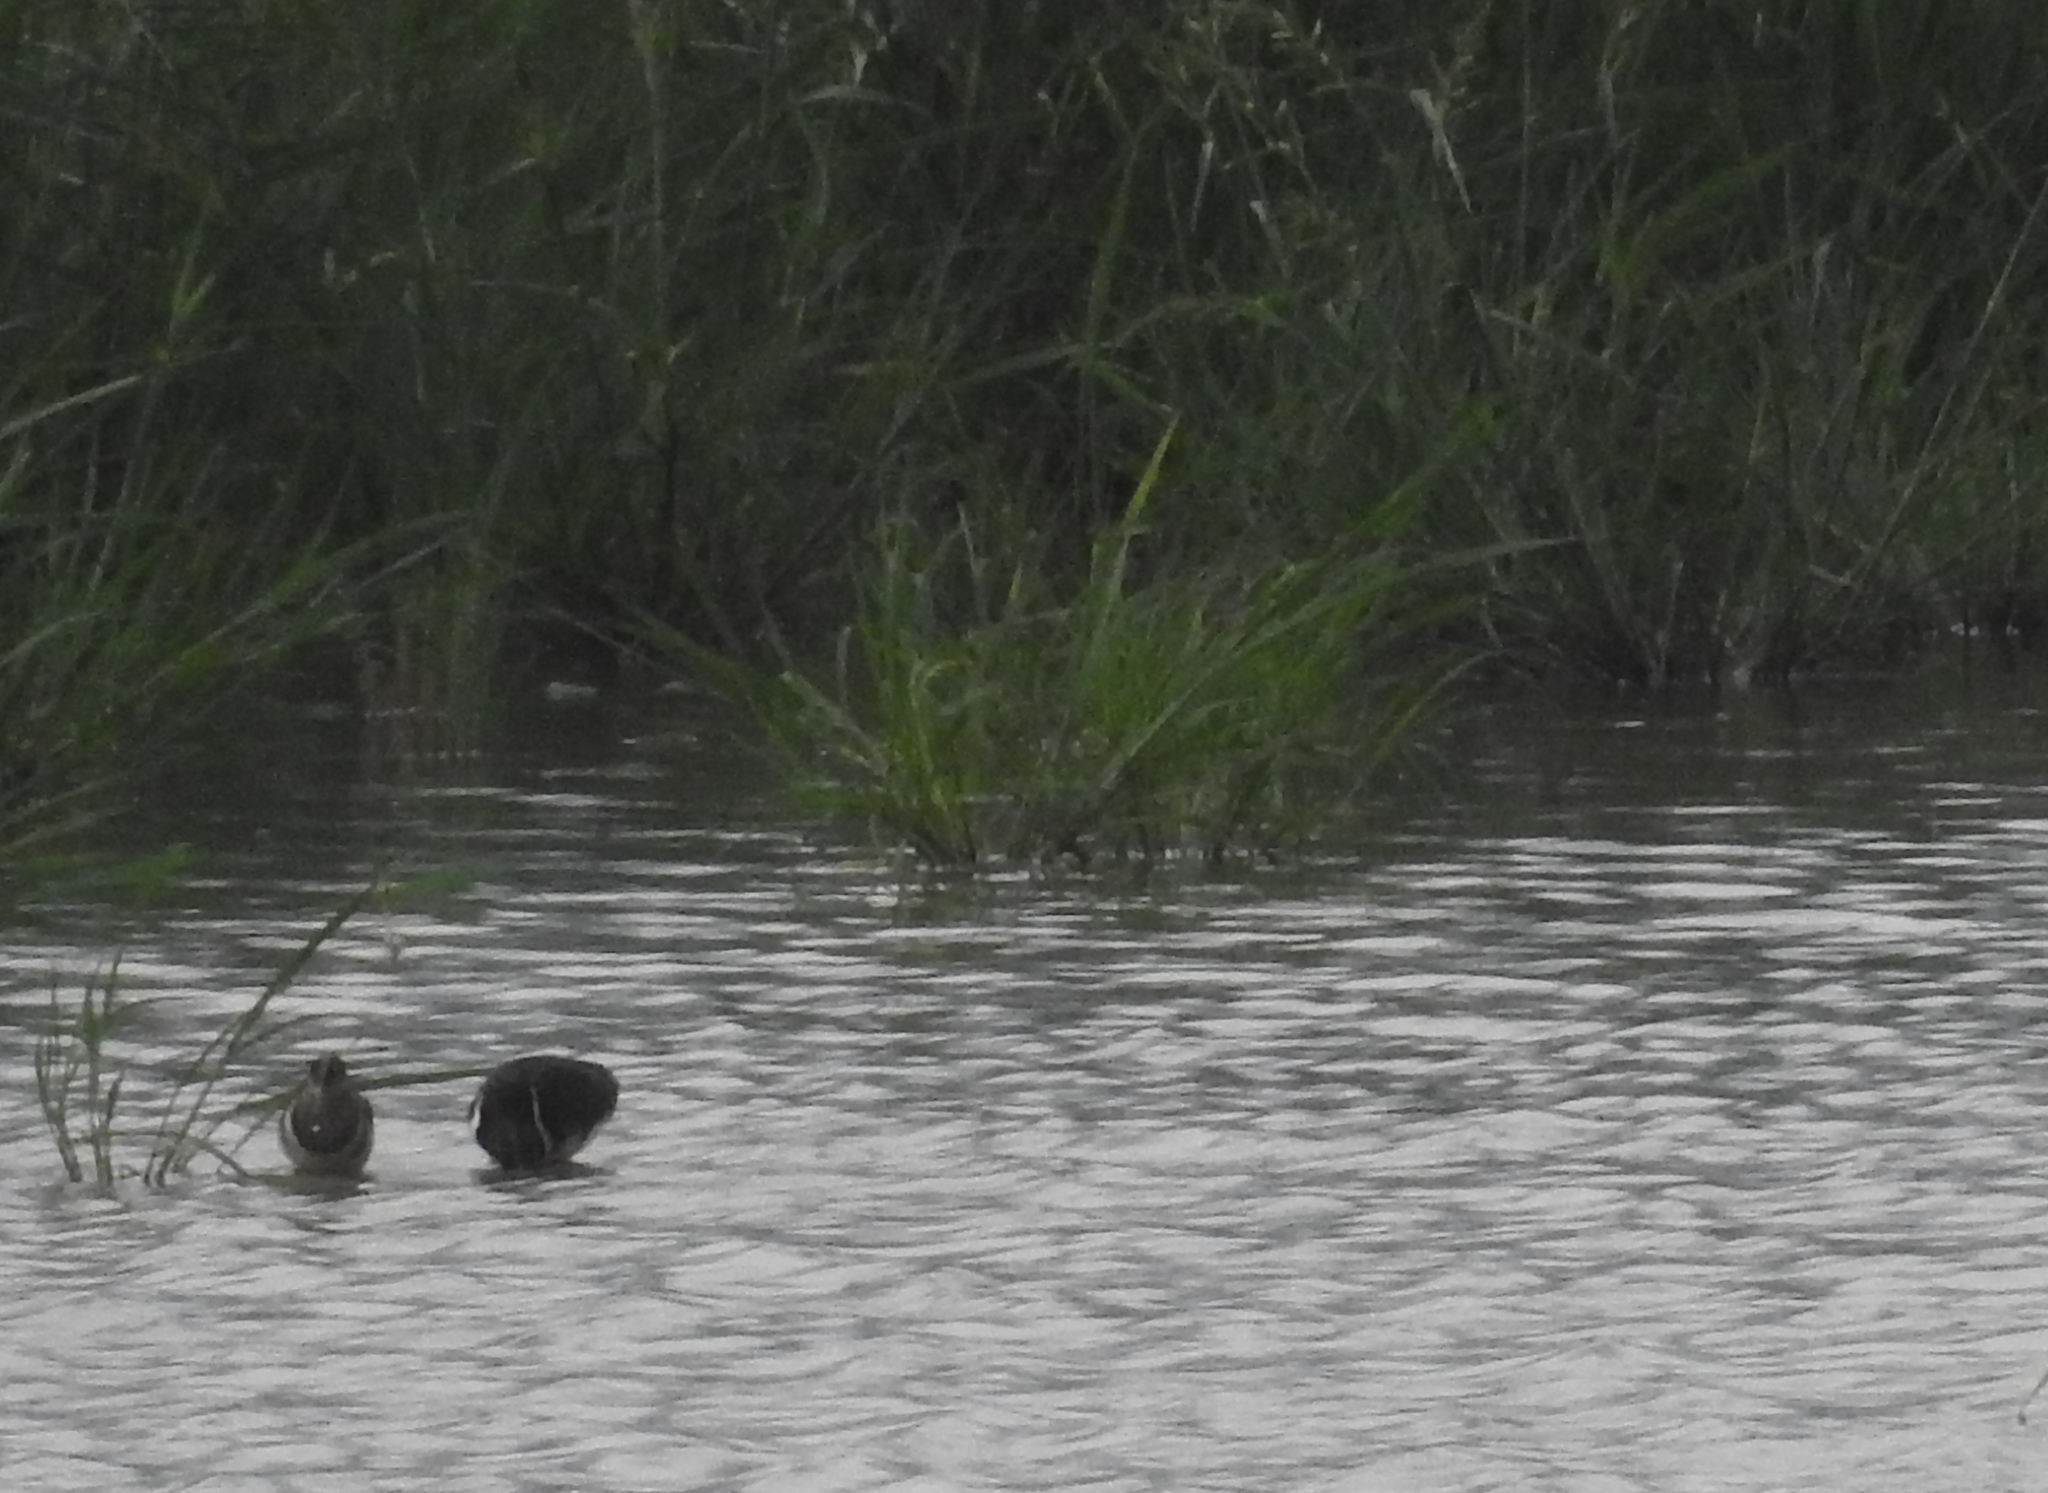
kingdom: Animalia
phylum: Chordata
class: Aves
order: Charadriiformes
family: Rostratulidae
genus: Rostratula
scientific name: Rostratula benghalensis
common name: Greater painted-snipe
